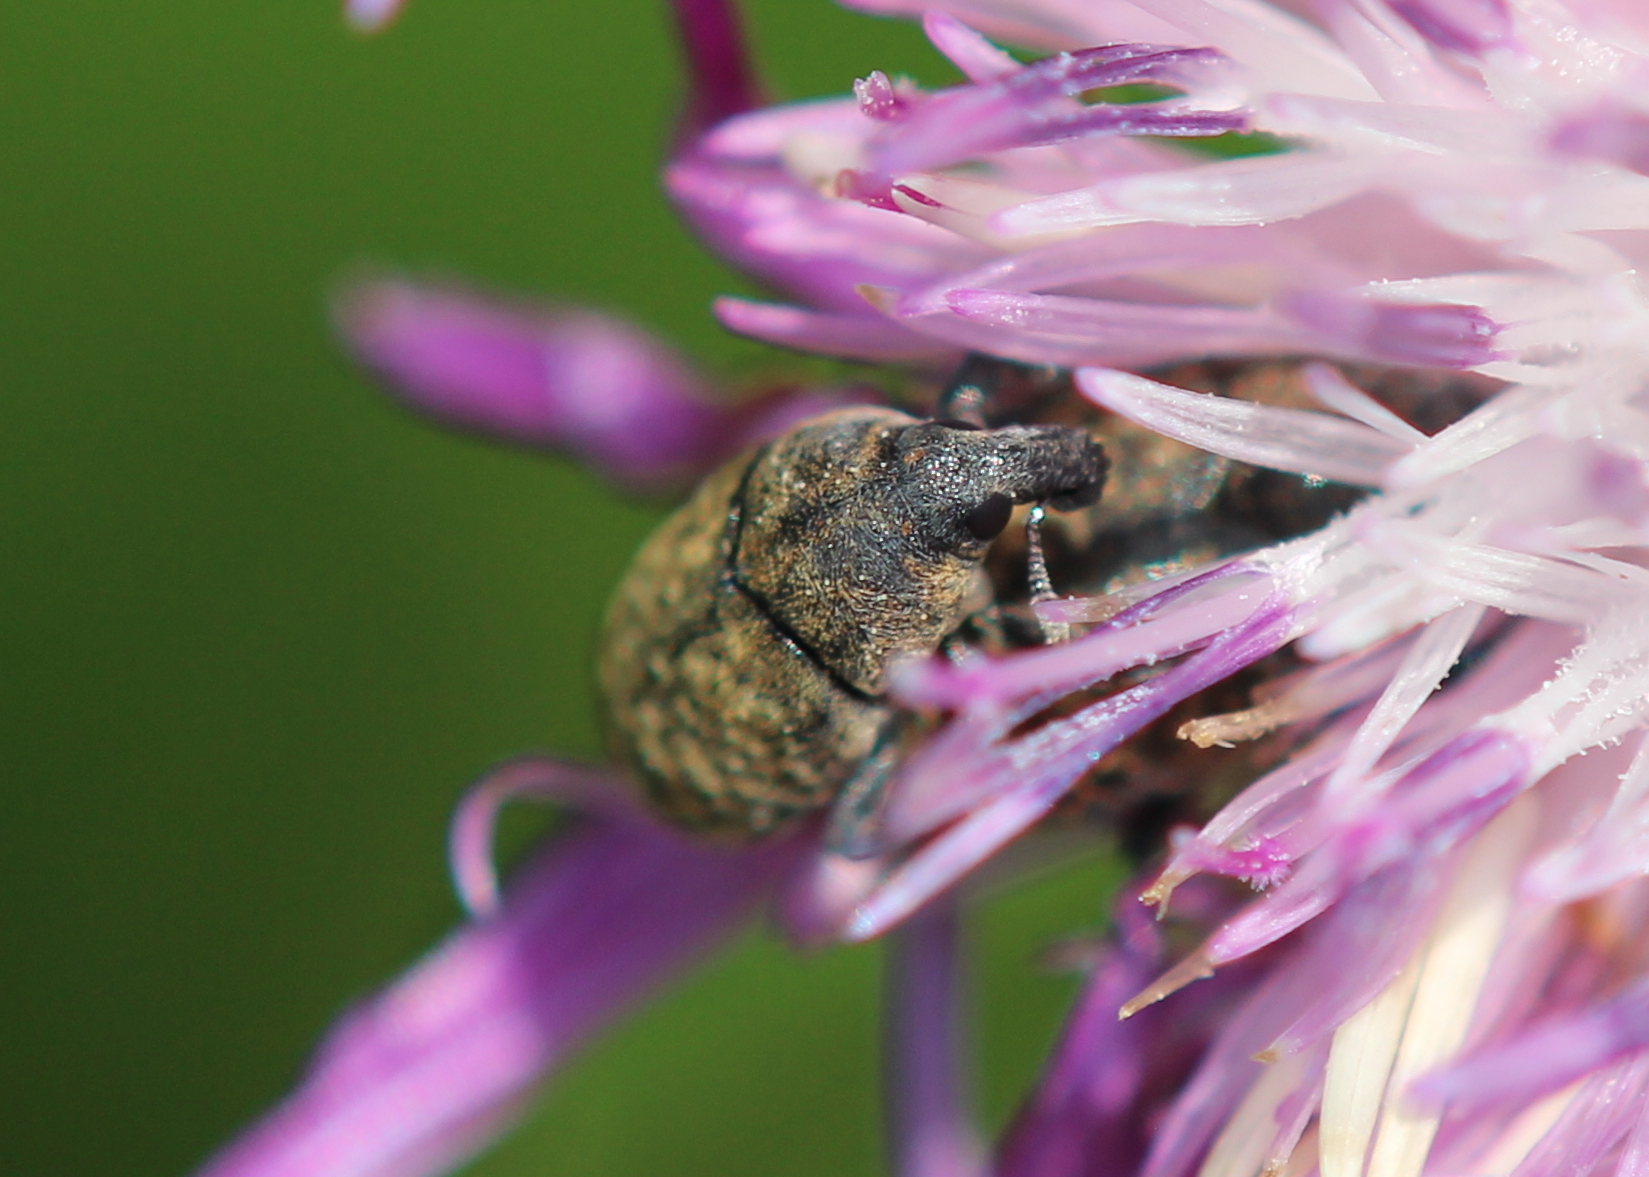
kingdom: Animalia
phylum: Arthropoda
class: Insecta
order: Coleoptera
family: Curculionidae
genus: Larinus
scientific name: Larinus obtusus
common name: Weevil
